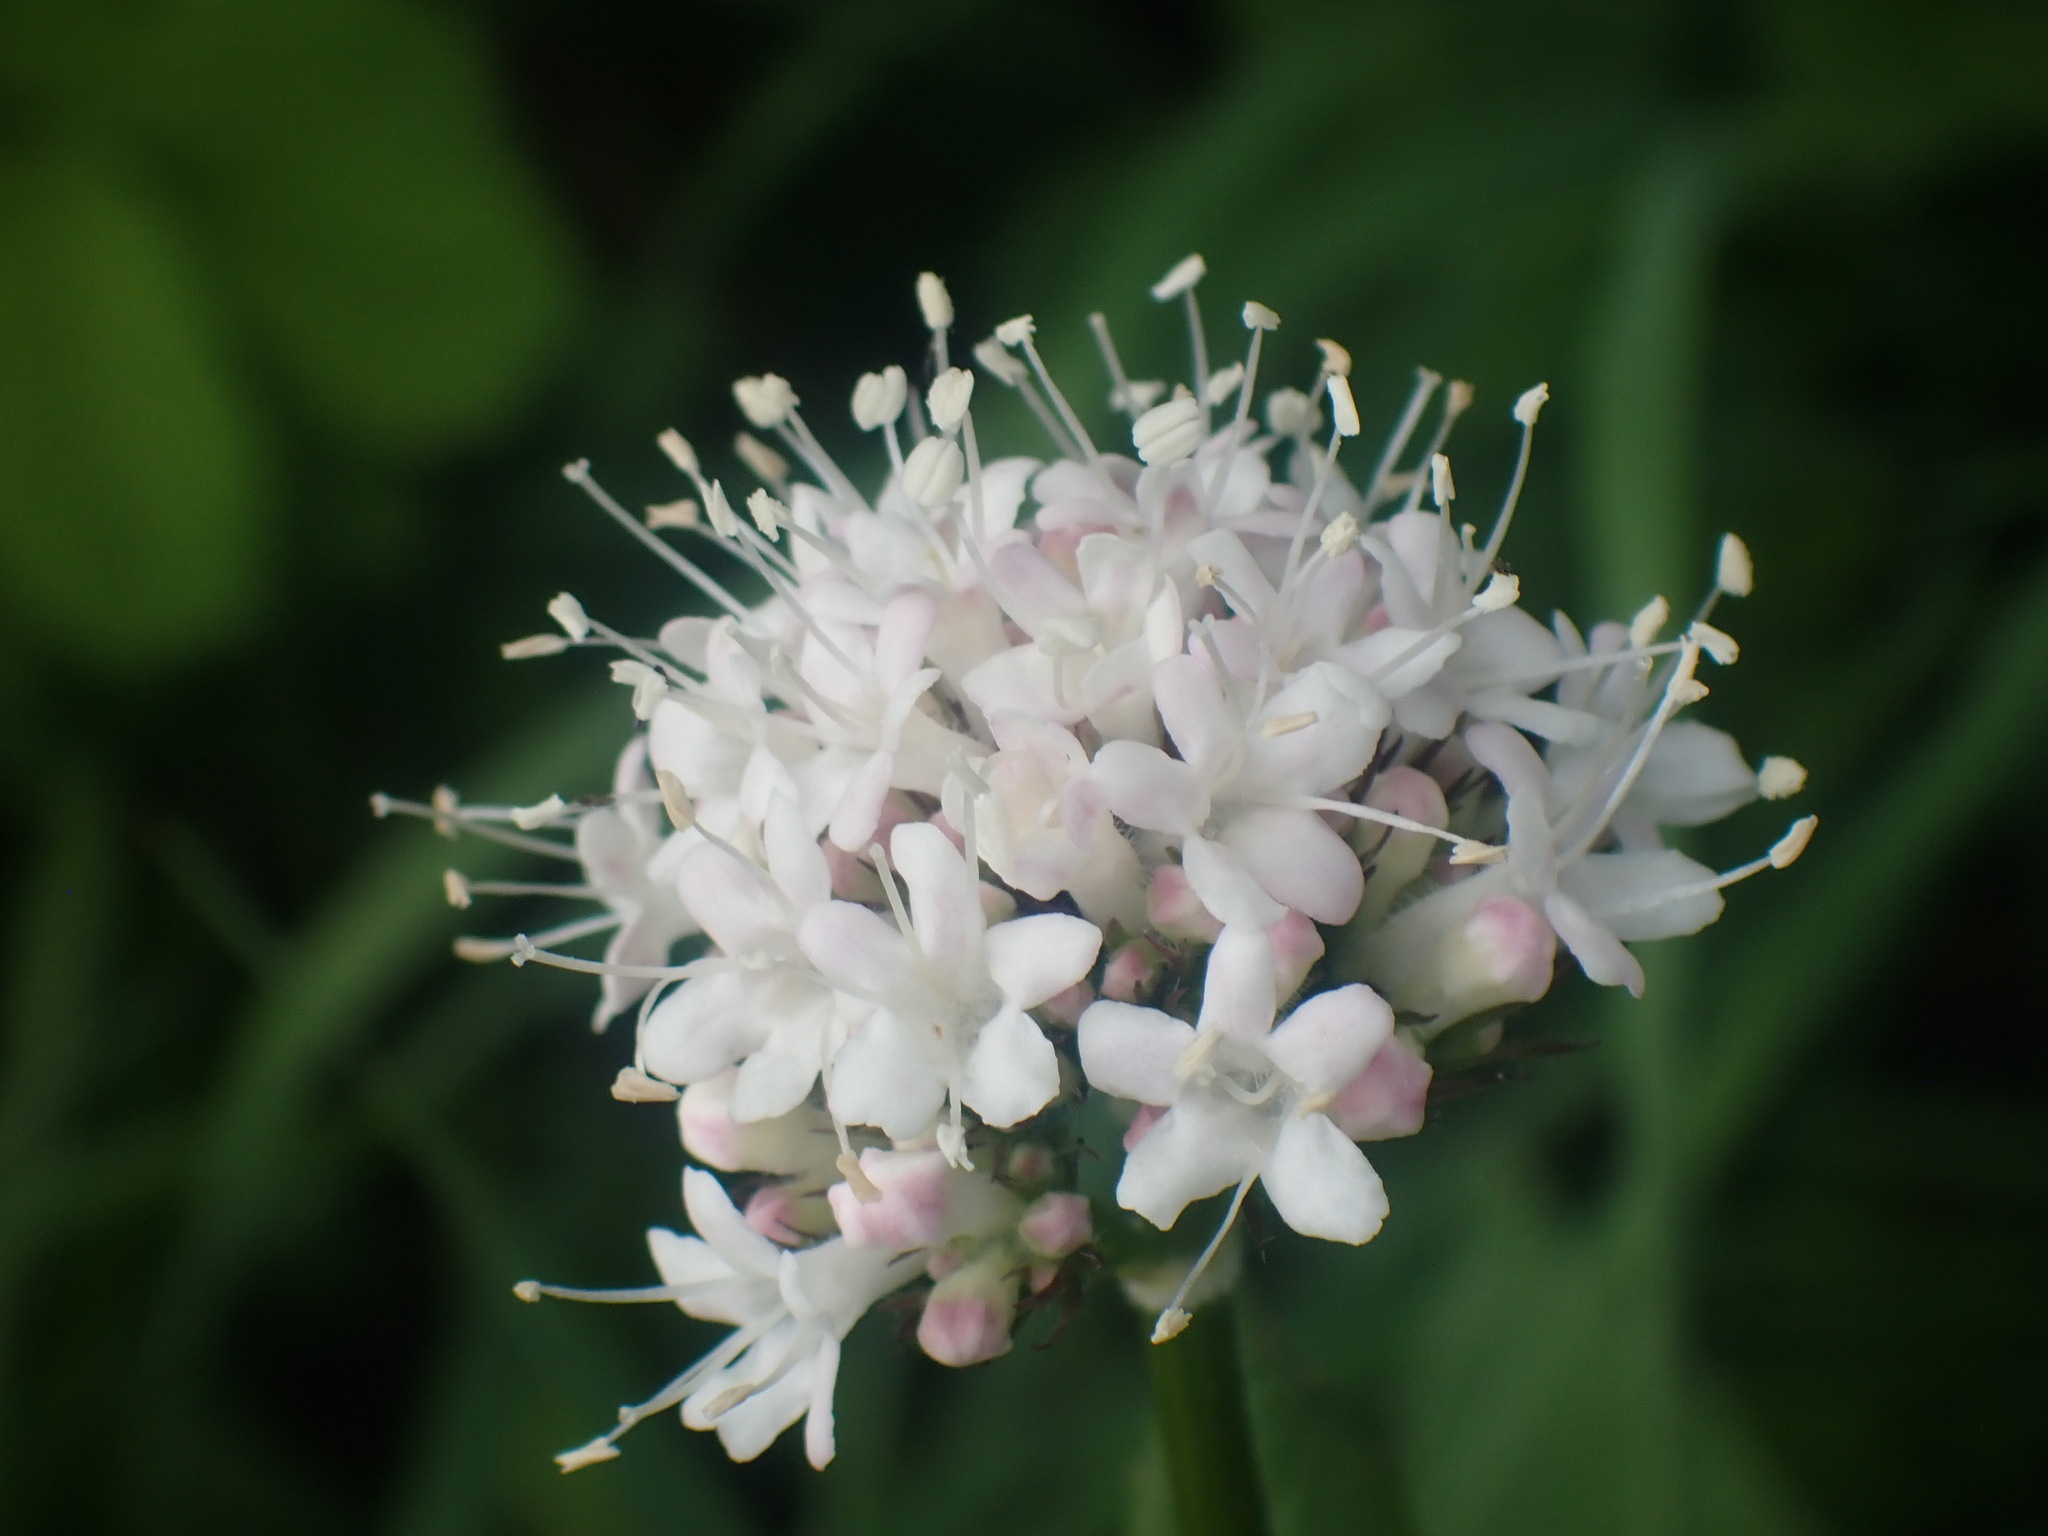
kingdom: Plantae
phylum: Tracheophyta
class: Magnoliopsida
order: Dipsacales
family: Caprifoliaceae
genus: Valeriana
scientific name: Valeriana sitchensis
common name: Pacific valerian
